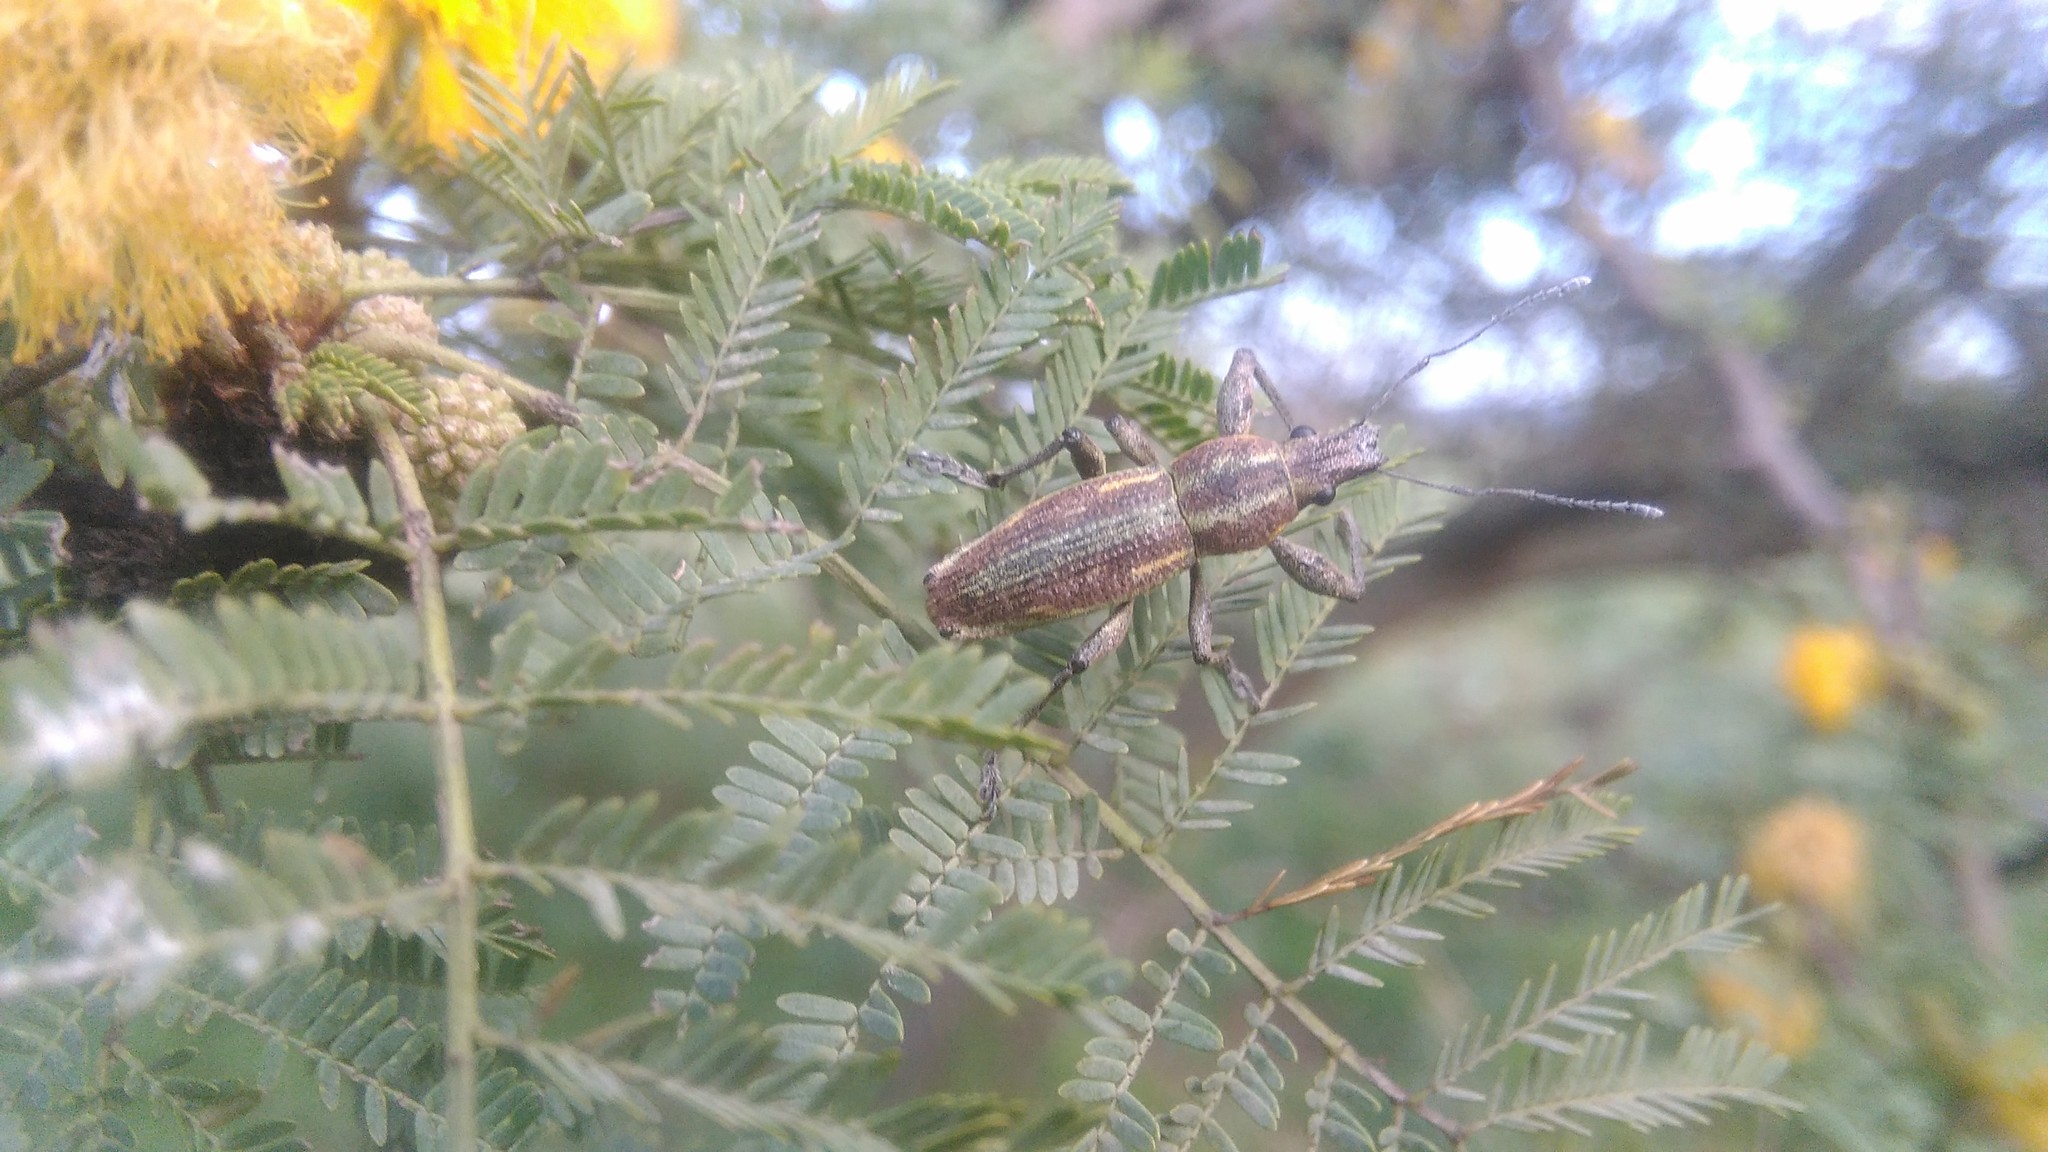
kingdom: Animalia
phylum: Arthropoda
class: Insecta
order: Coleoptera
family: Curculionidae
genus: Naupactus
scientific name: Naupactus xanthographus
